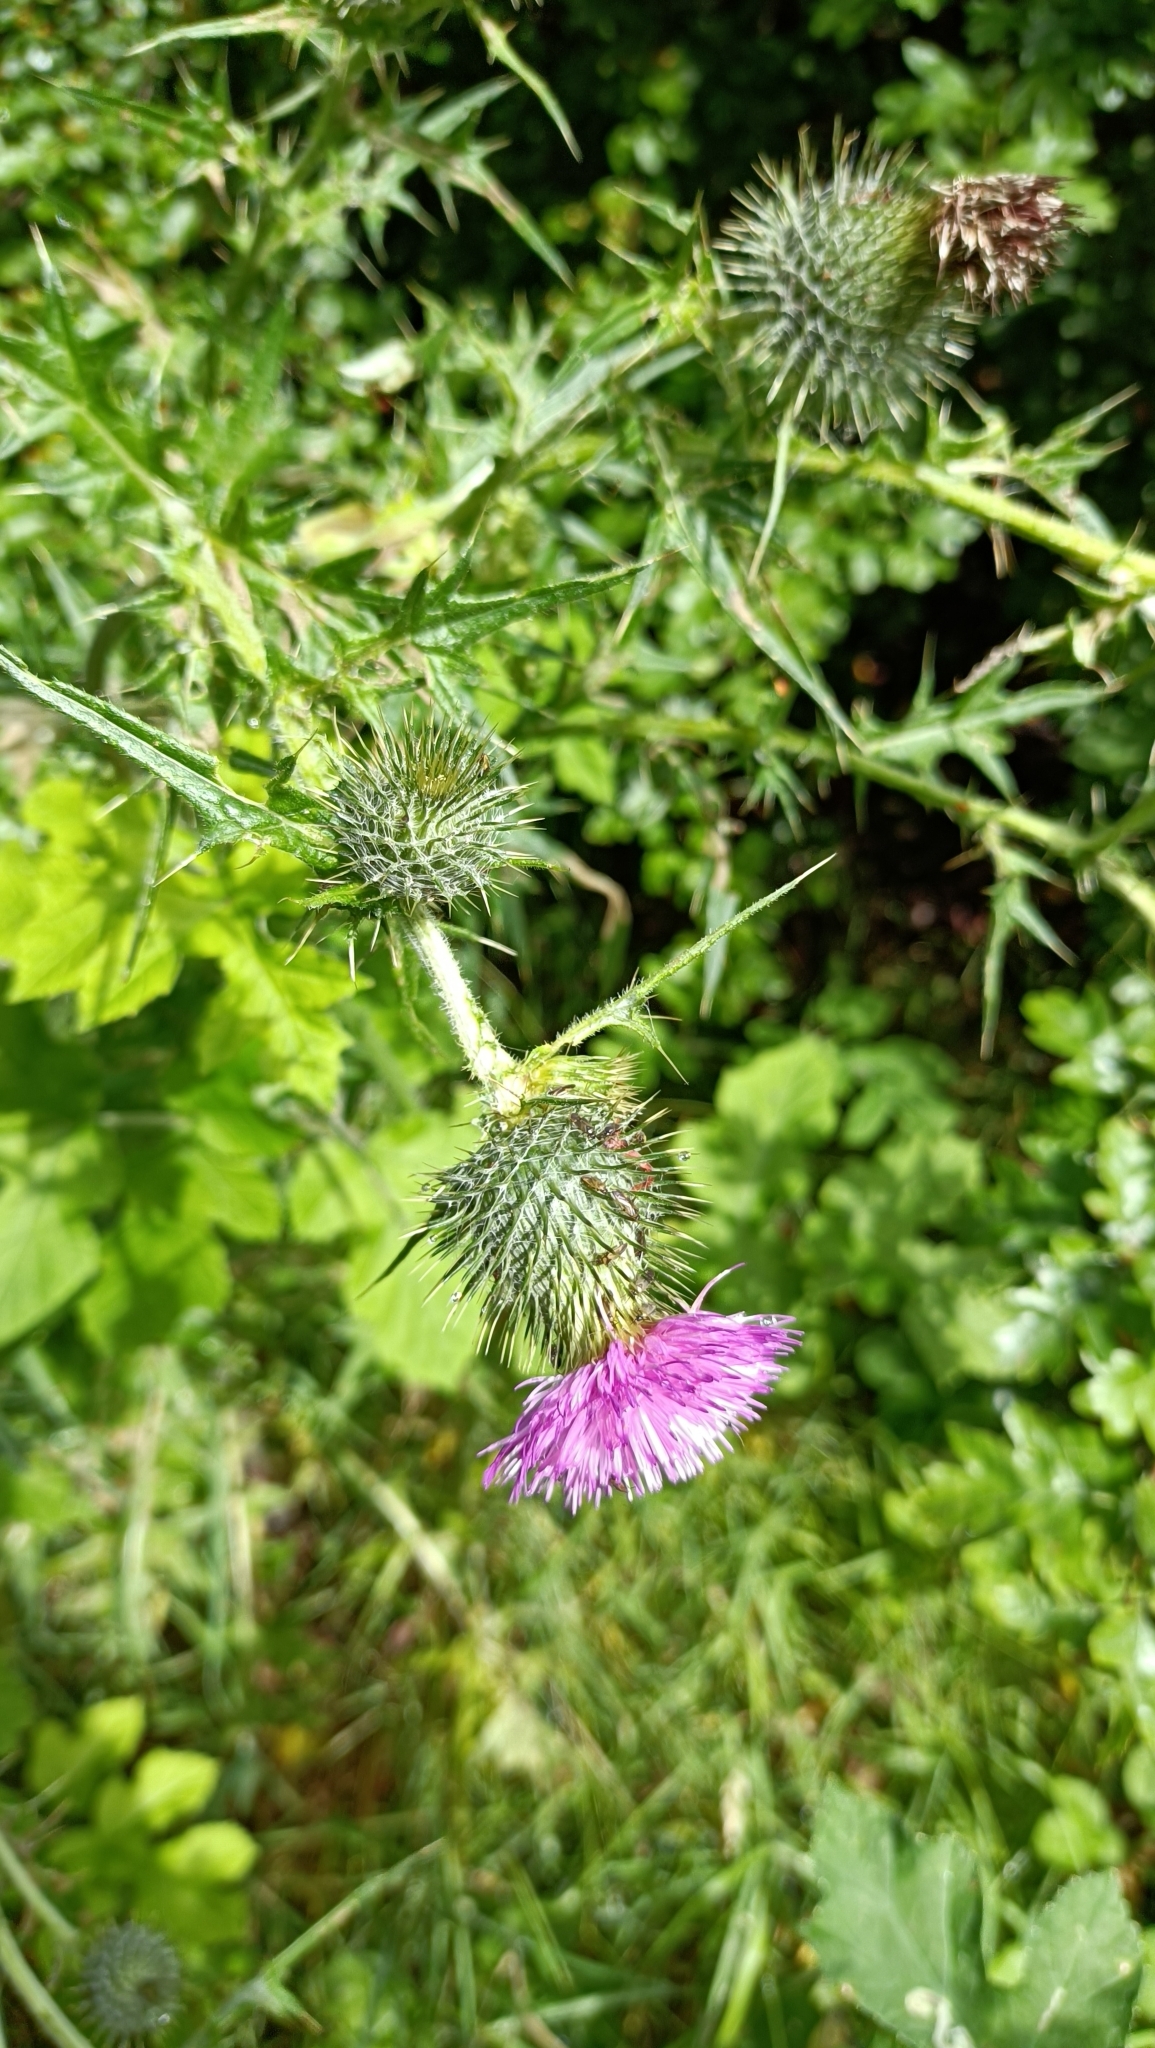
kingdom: Plantae
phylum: Tracheophyta
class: Magnoliopsida
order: Asterales
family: Asteraceae
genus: Cirsium
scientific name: Cirsium vulgare
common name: Bull thistle
